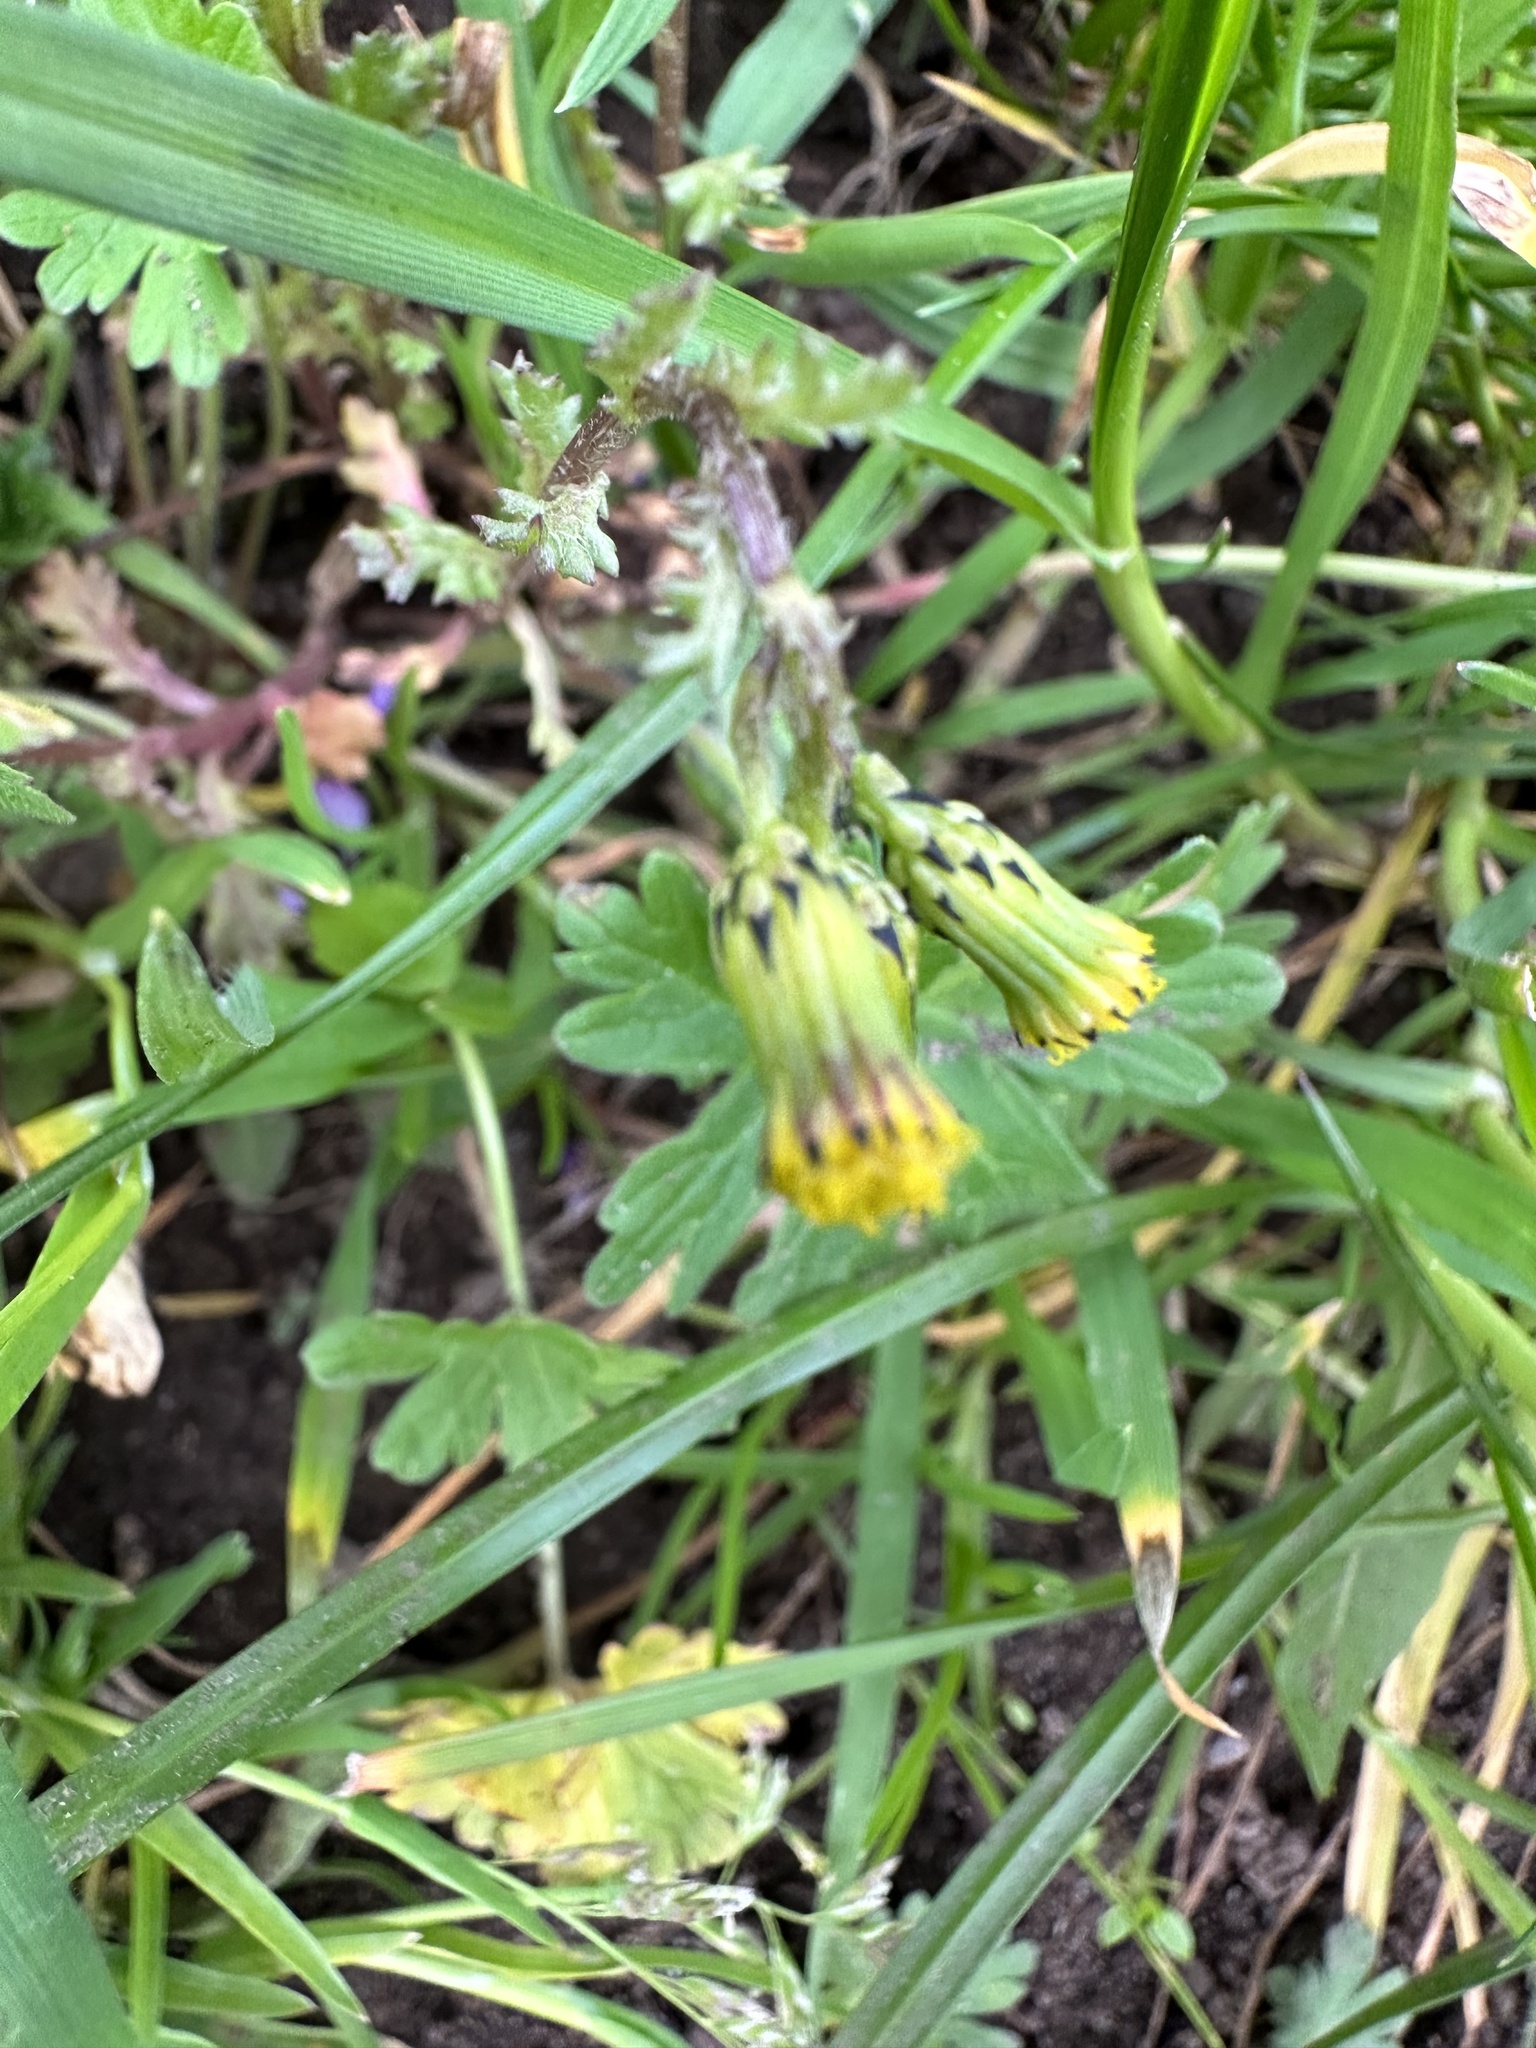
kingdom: Plantae
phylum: Tracheophyta
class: Magnoliopsida
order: Asterales
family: Asteraceae
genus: Senecio
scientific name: Senecio vulgaris
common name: Old-man-in-the-spring
